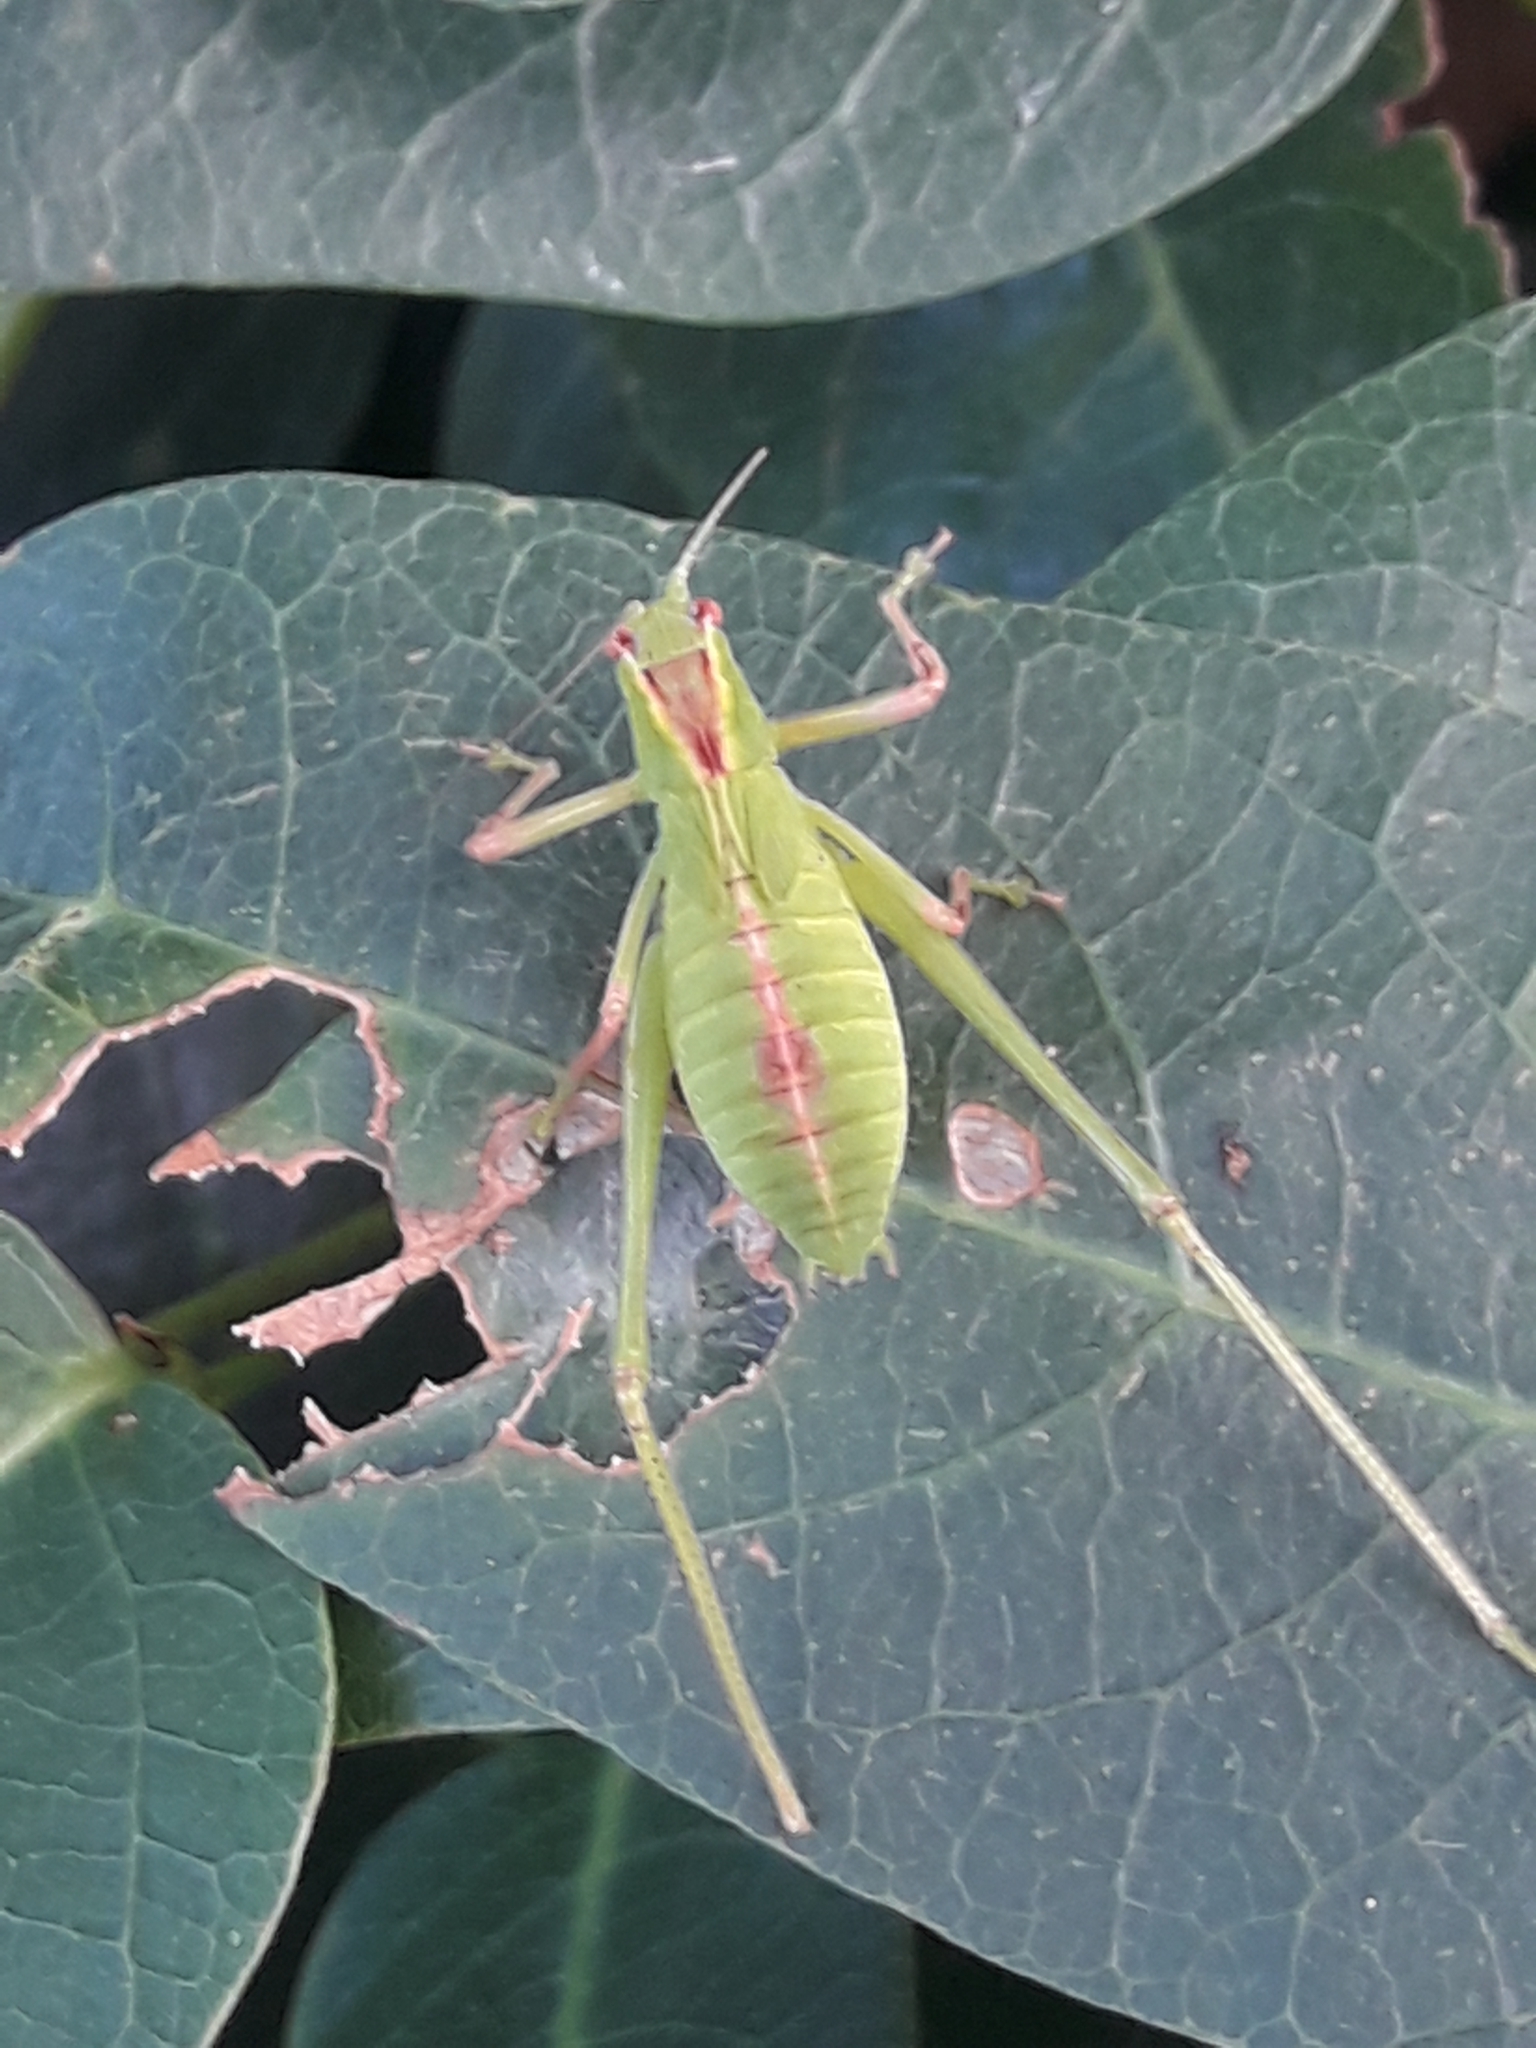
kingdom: Animalia
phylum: Arthropoda
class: Insecta
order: Orthoptera
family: Tettigoniidae
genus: Caedicia
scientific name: Caedicia simplex
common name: Common garden katydid
